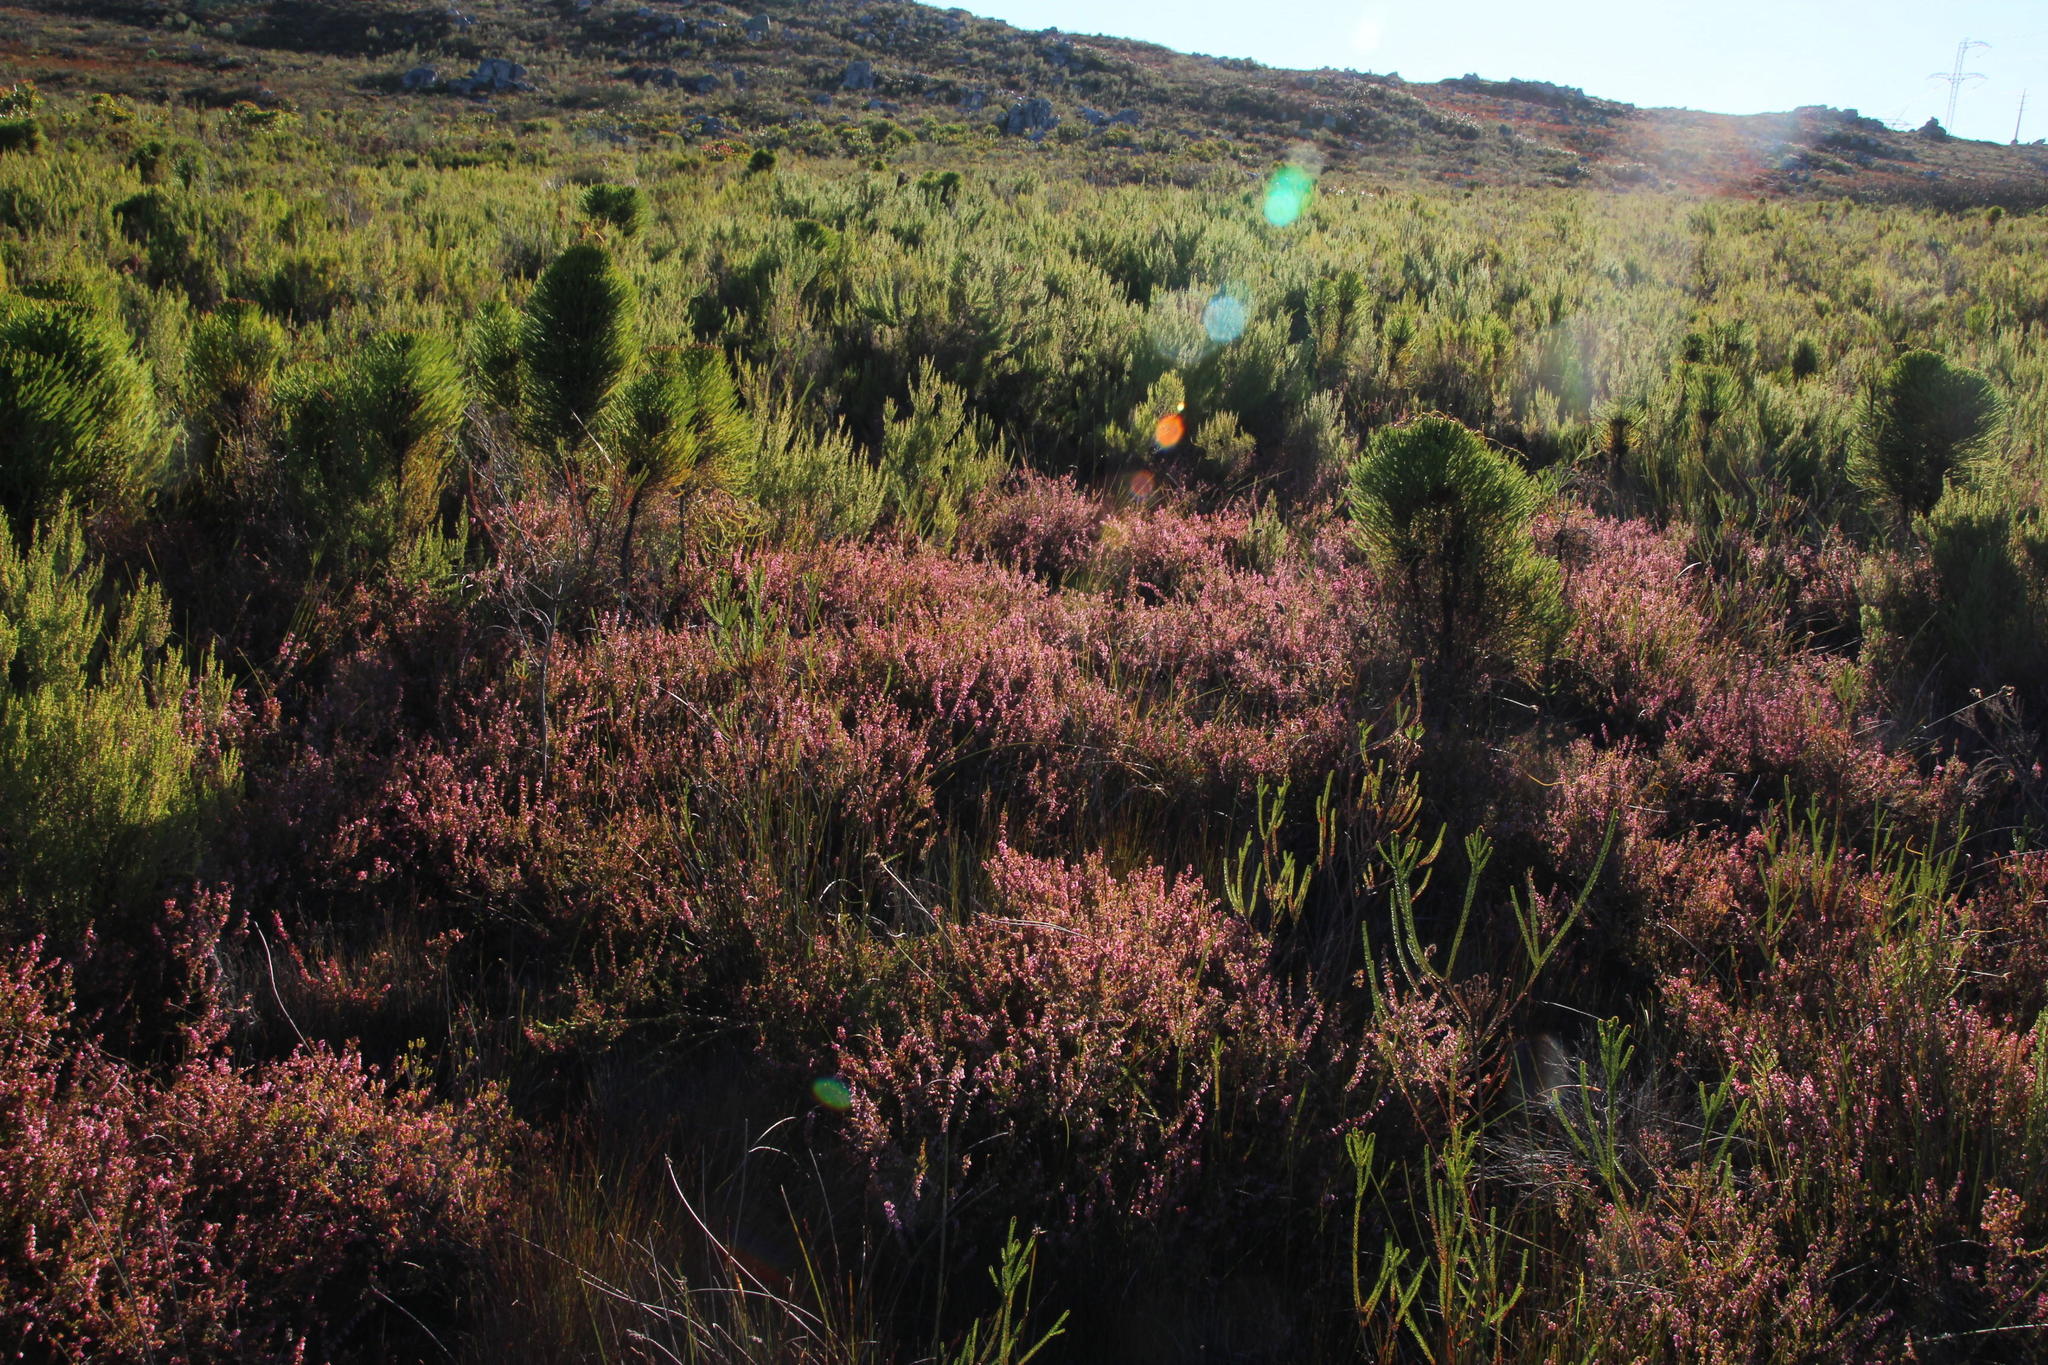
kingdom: Plantae
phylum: Tracheophyta
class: Magnoliopsida
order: Ericales
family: Ericaceae
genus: Erica
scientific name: Erica intervallaris
